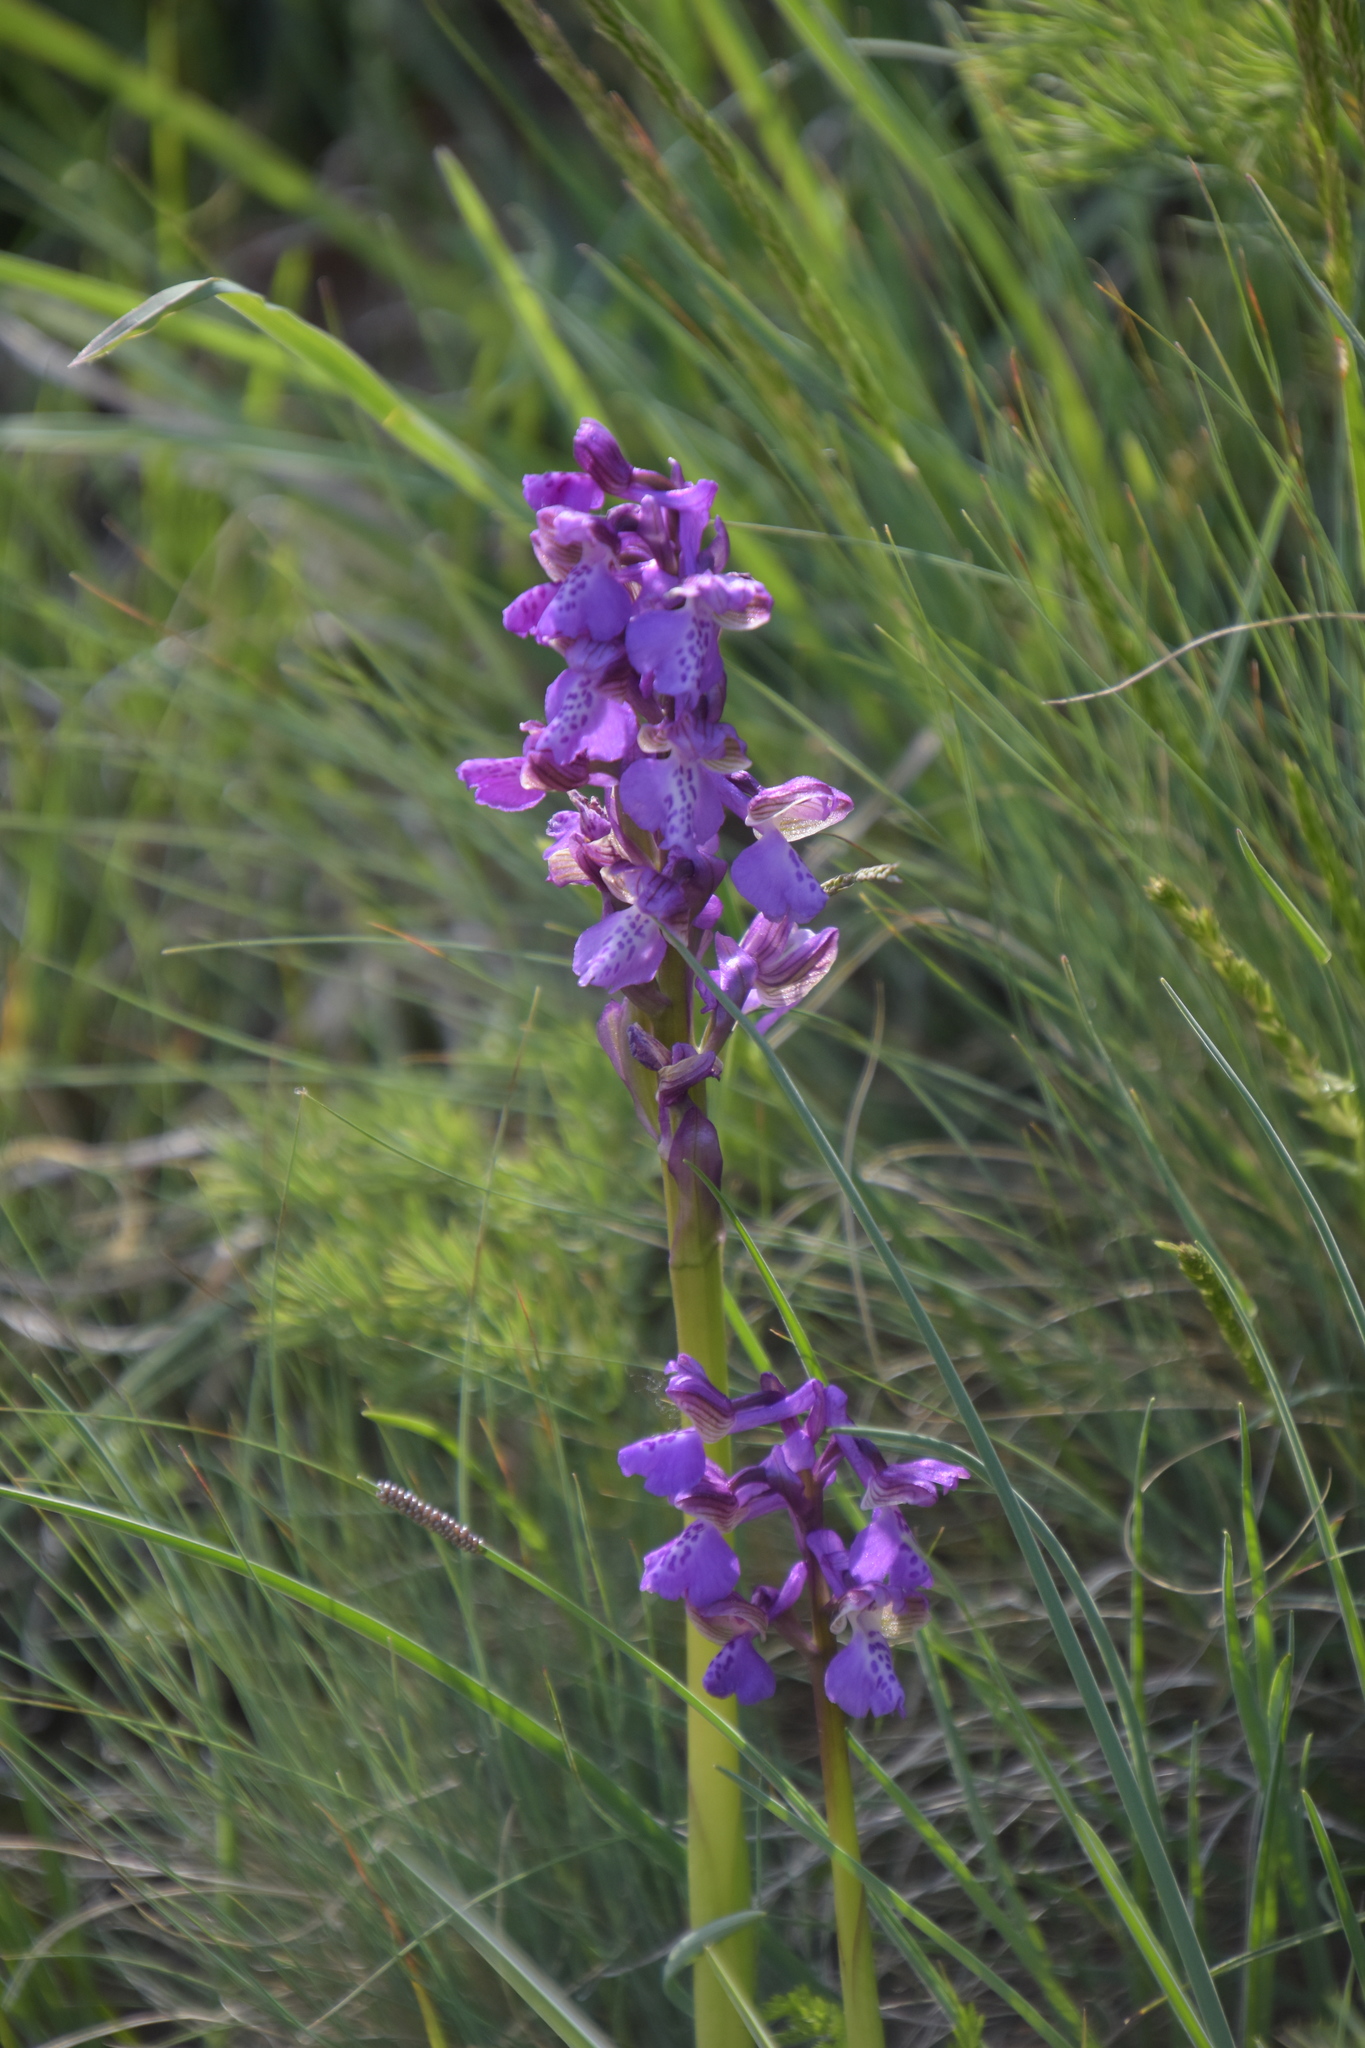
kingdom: Plantae
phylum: Tracheophyta
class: Liliopsida
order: Asparagales
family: Orchidaceae
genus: Anacamptis
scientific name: Anacamptis morio
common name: Green-winged orchid
